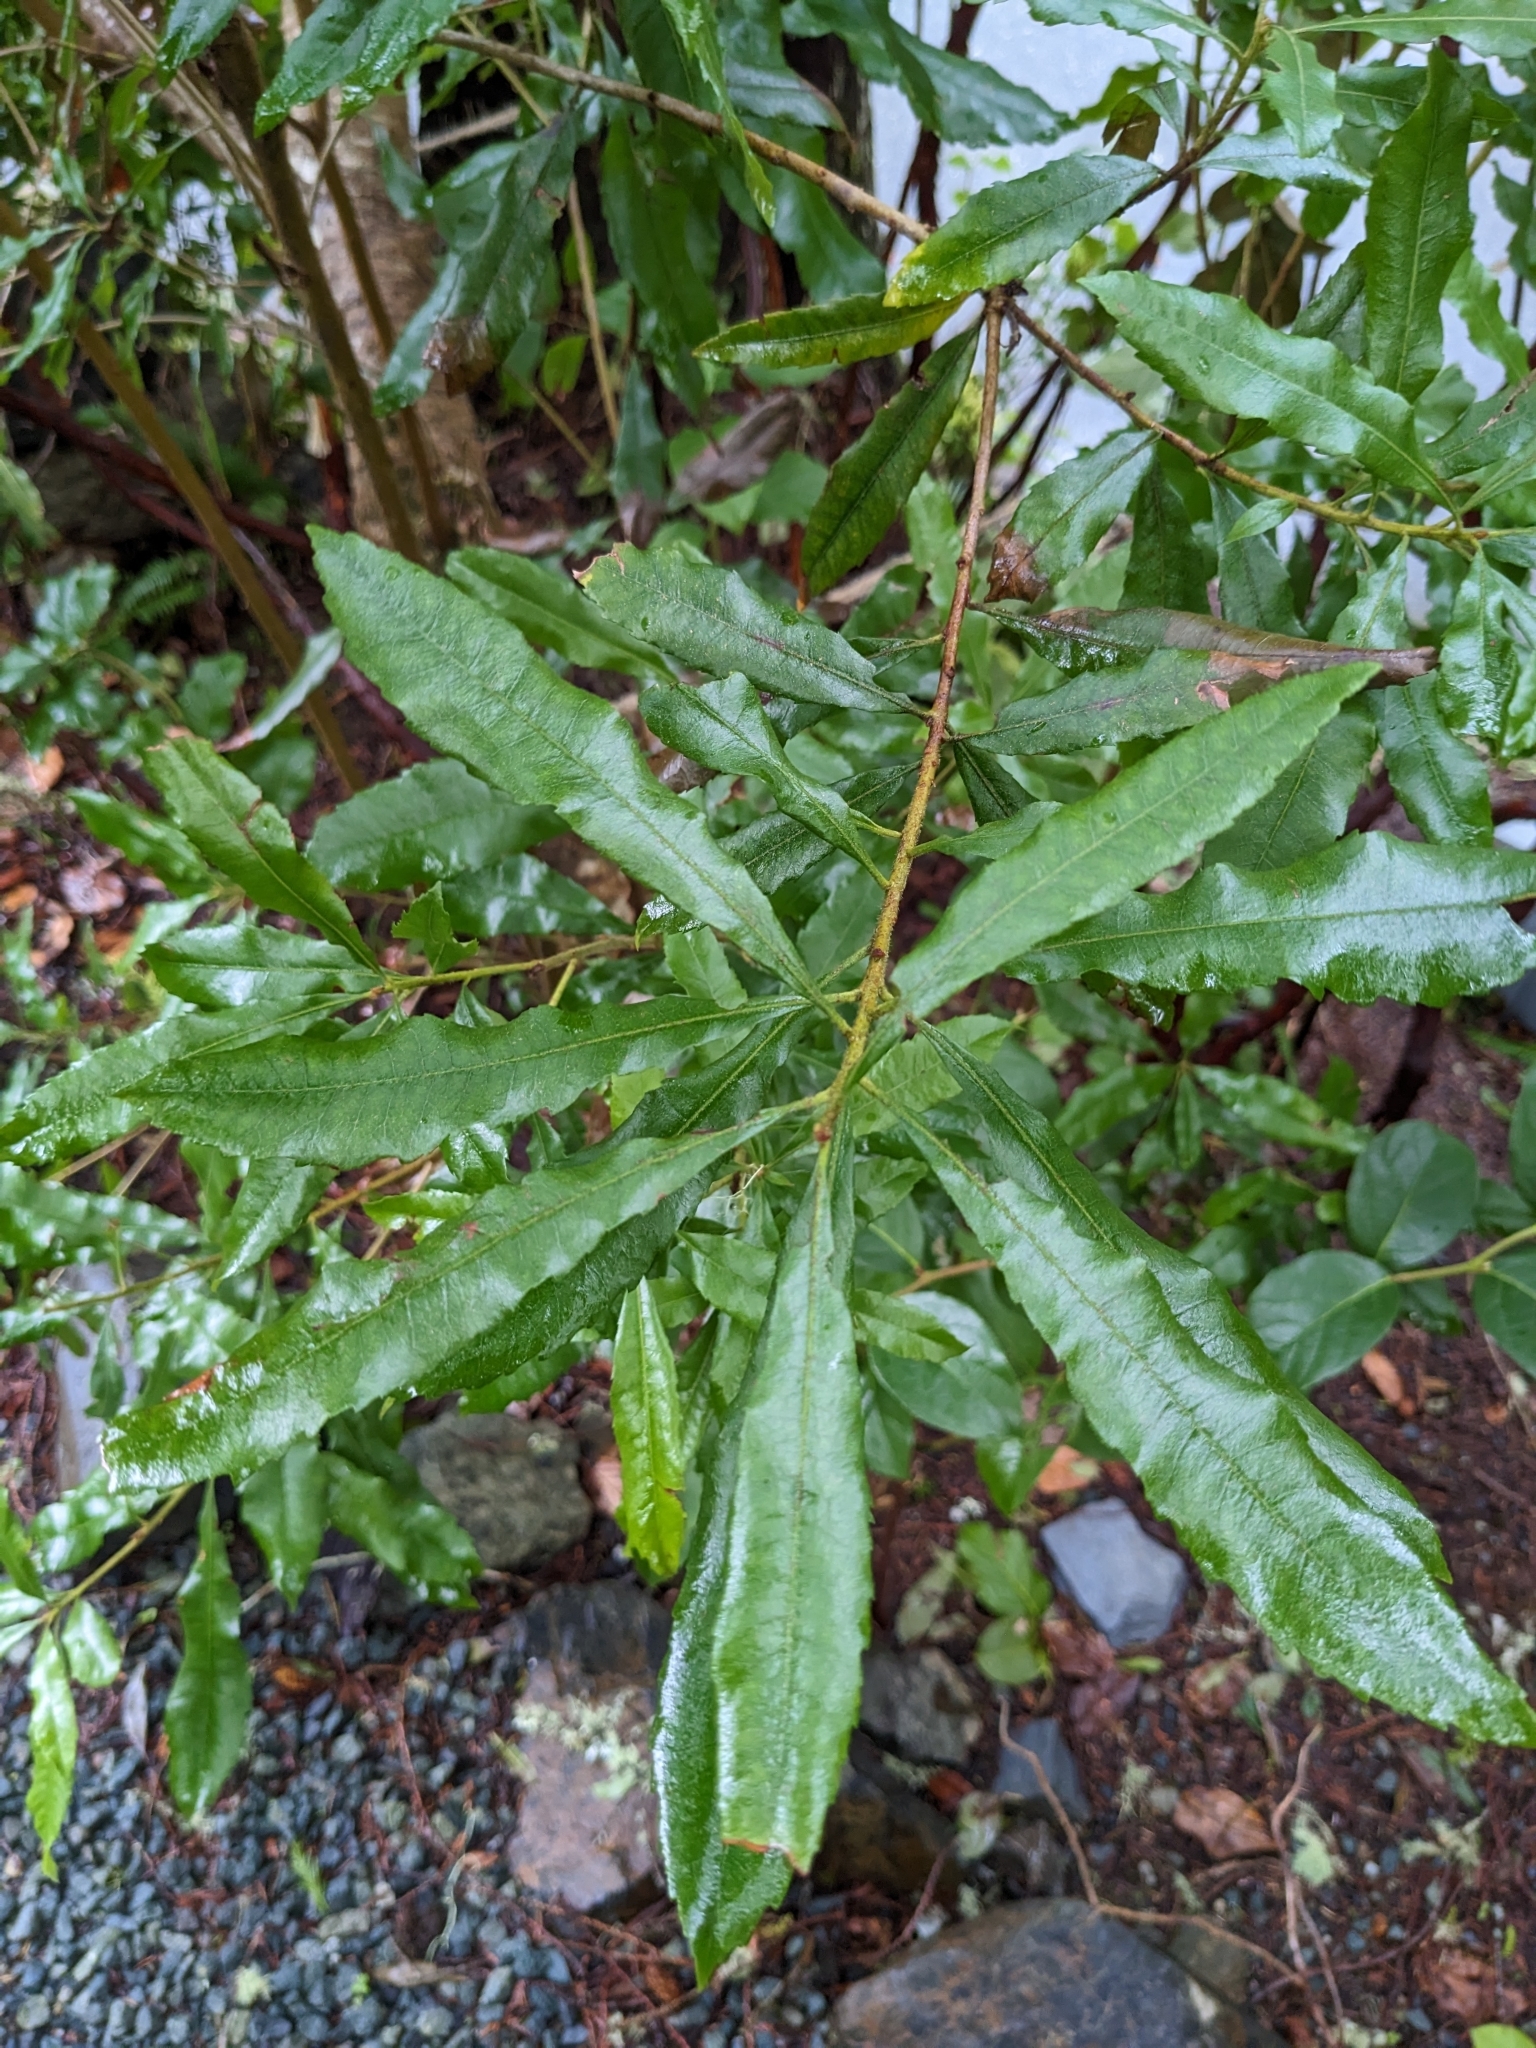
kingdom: Plantae
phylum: Tracheophyta
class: Magnoliopsida
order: Fagales
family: Myricaceae
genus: Morella
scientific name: Morella californica
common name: California wax-myrtle
